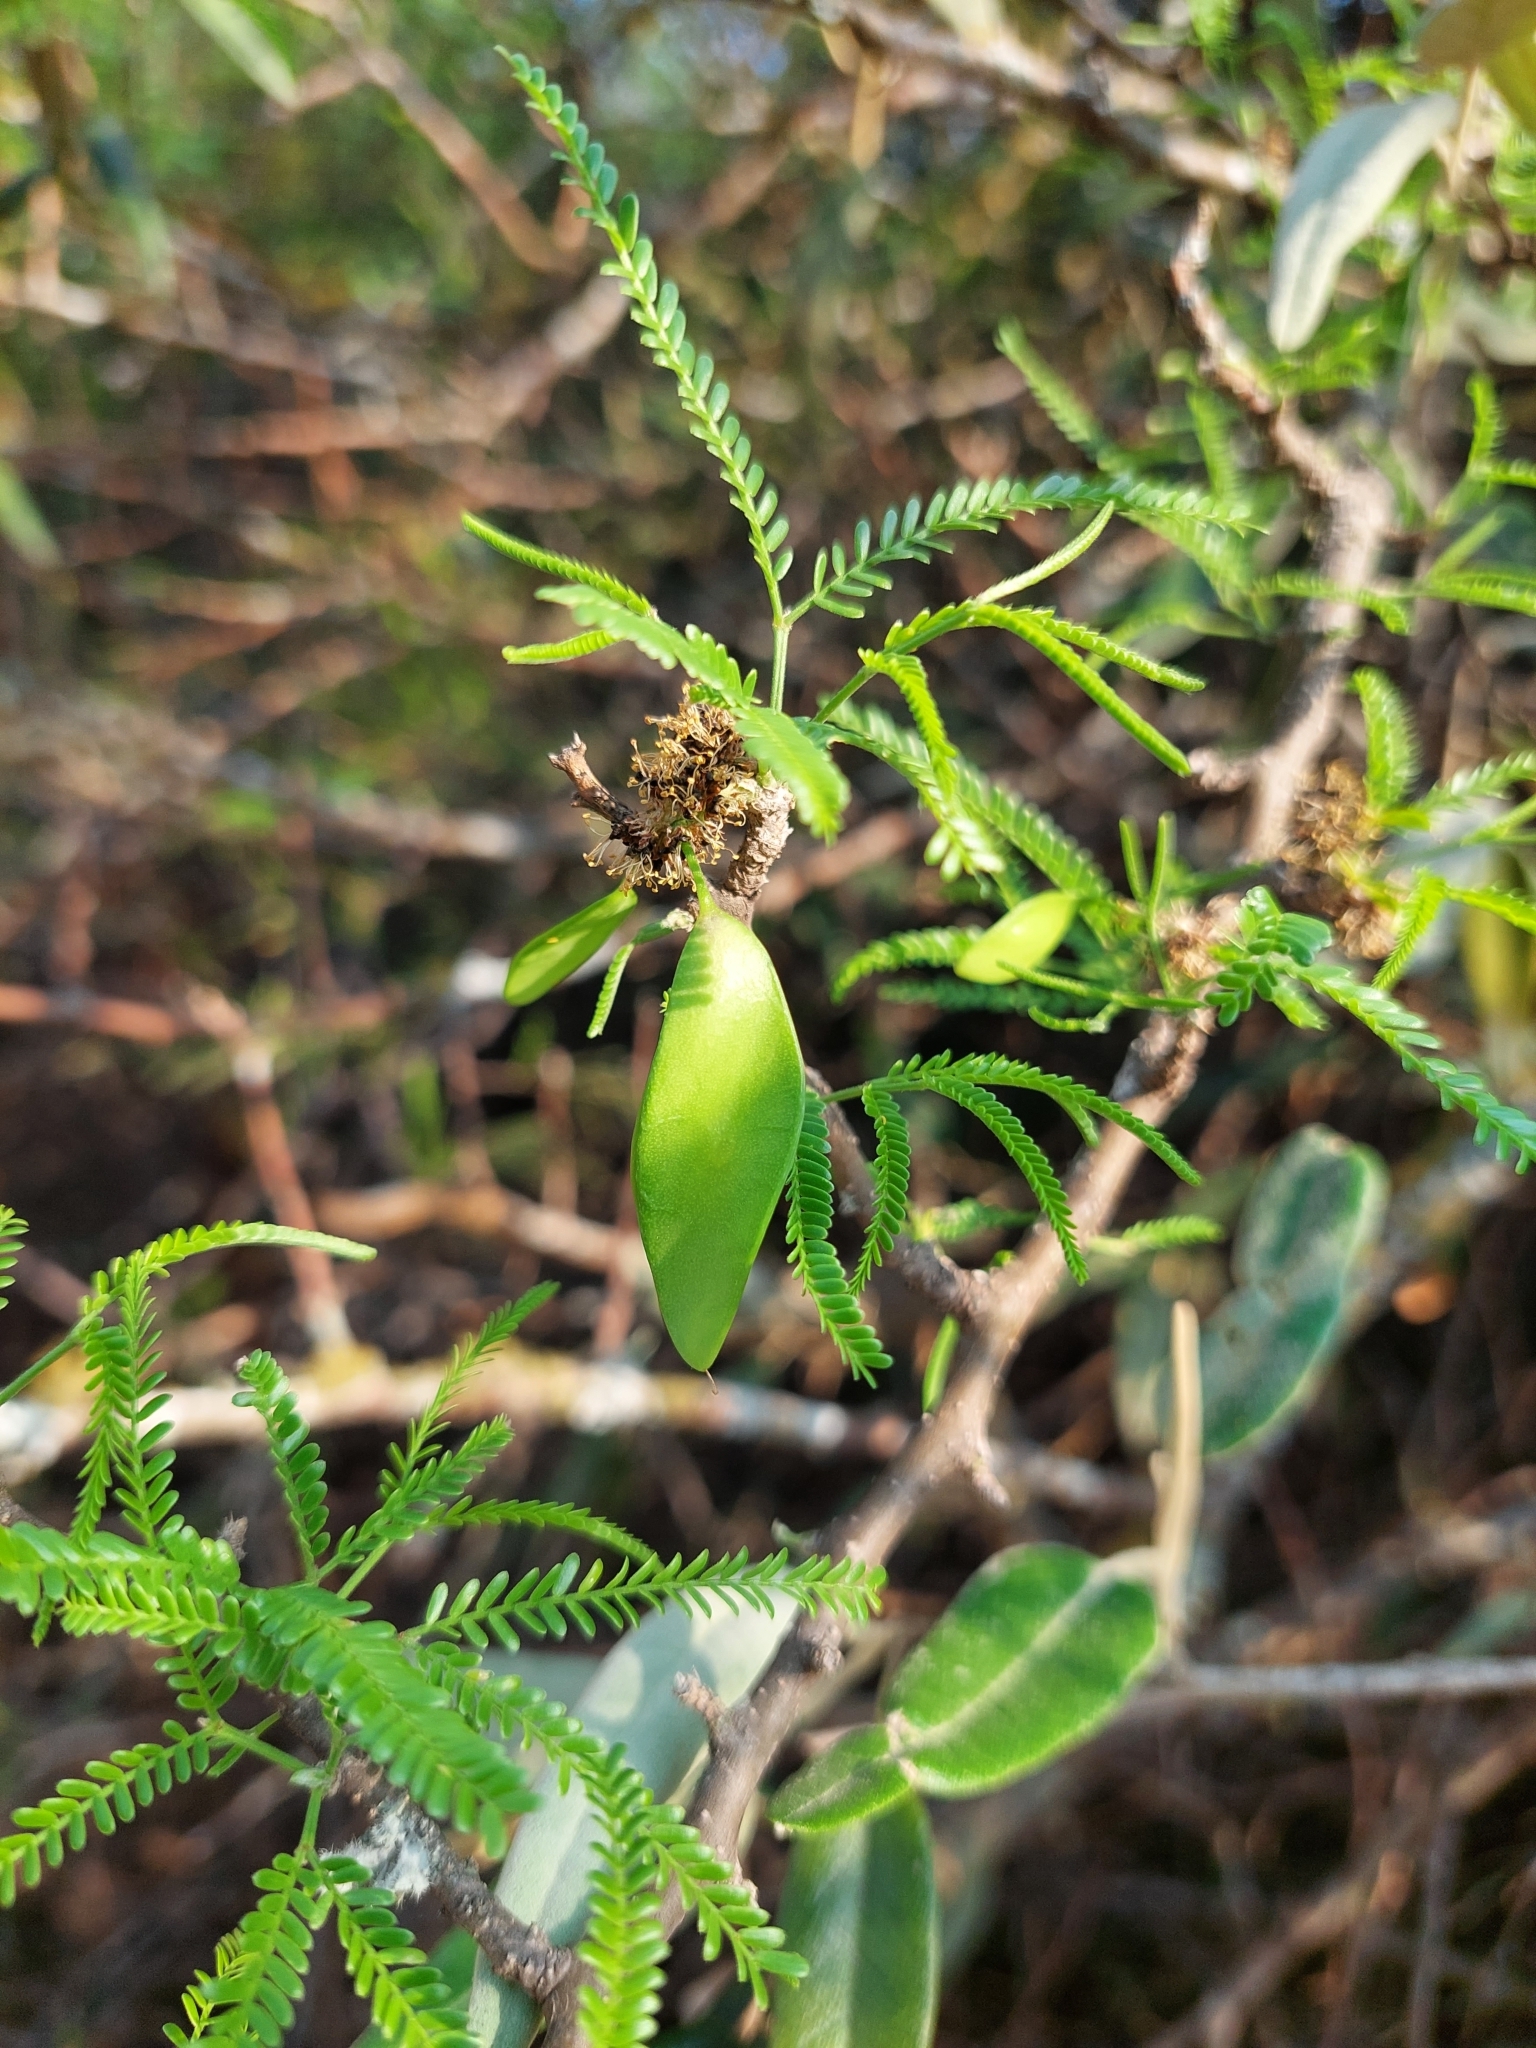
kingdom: Plantae
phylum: Tracheophyta
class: Magnoliopsida
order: Fabales
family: Fabaceae
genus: Mimozyganthus
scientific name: Mimozyganthus carinatus
